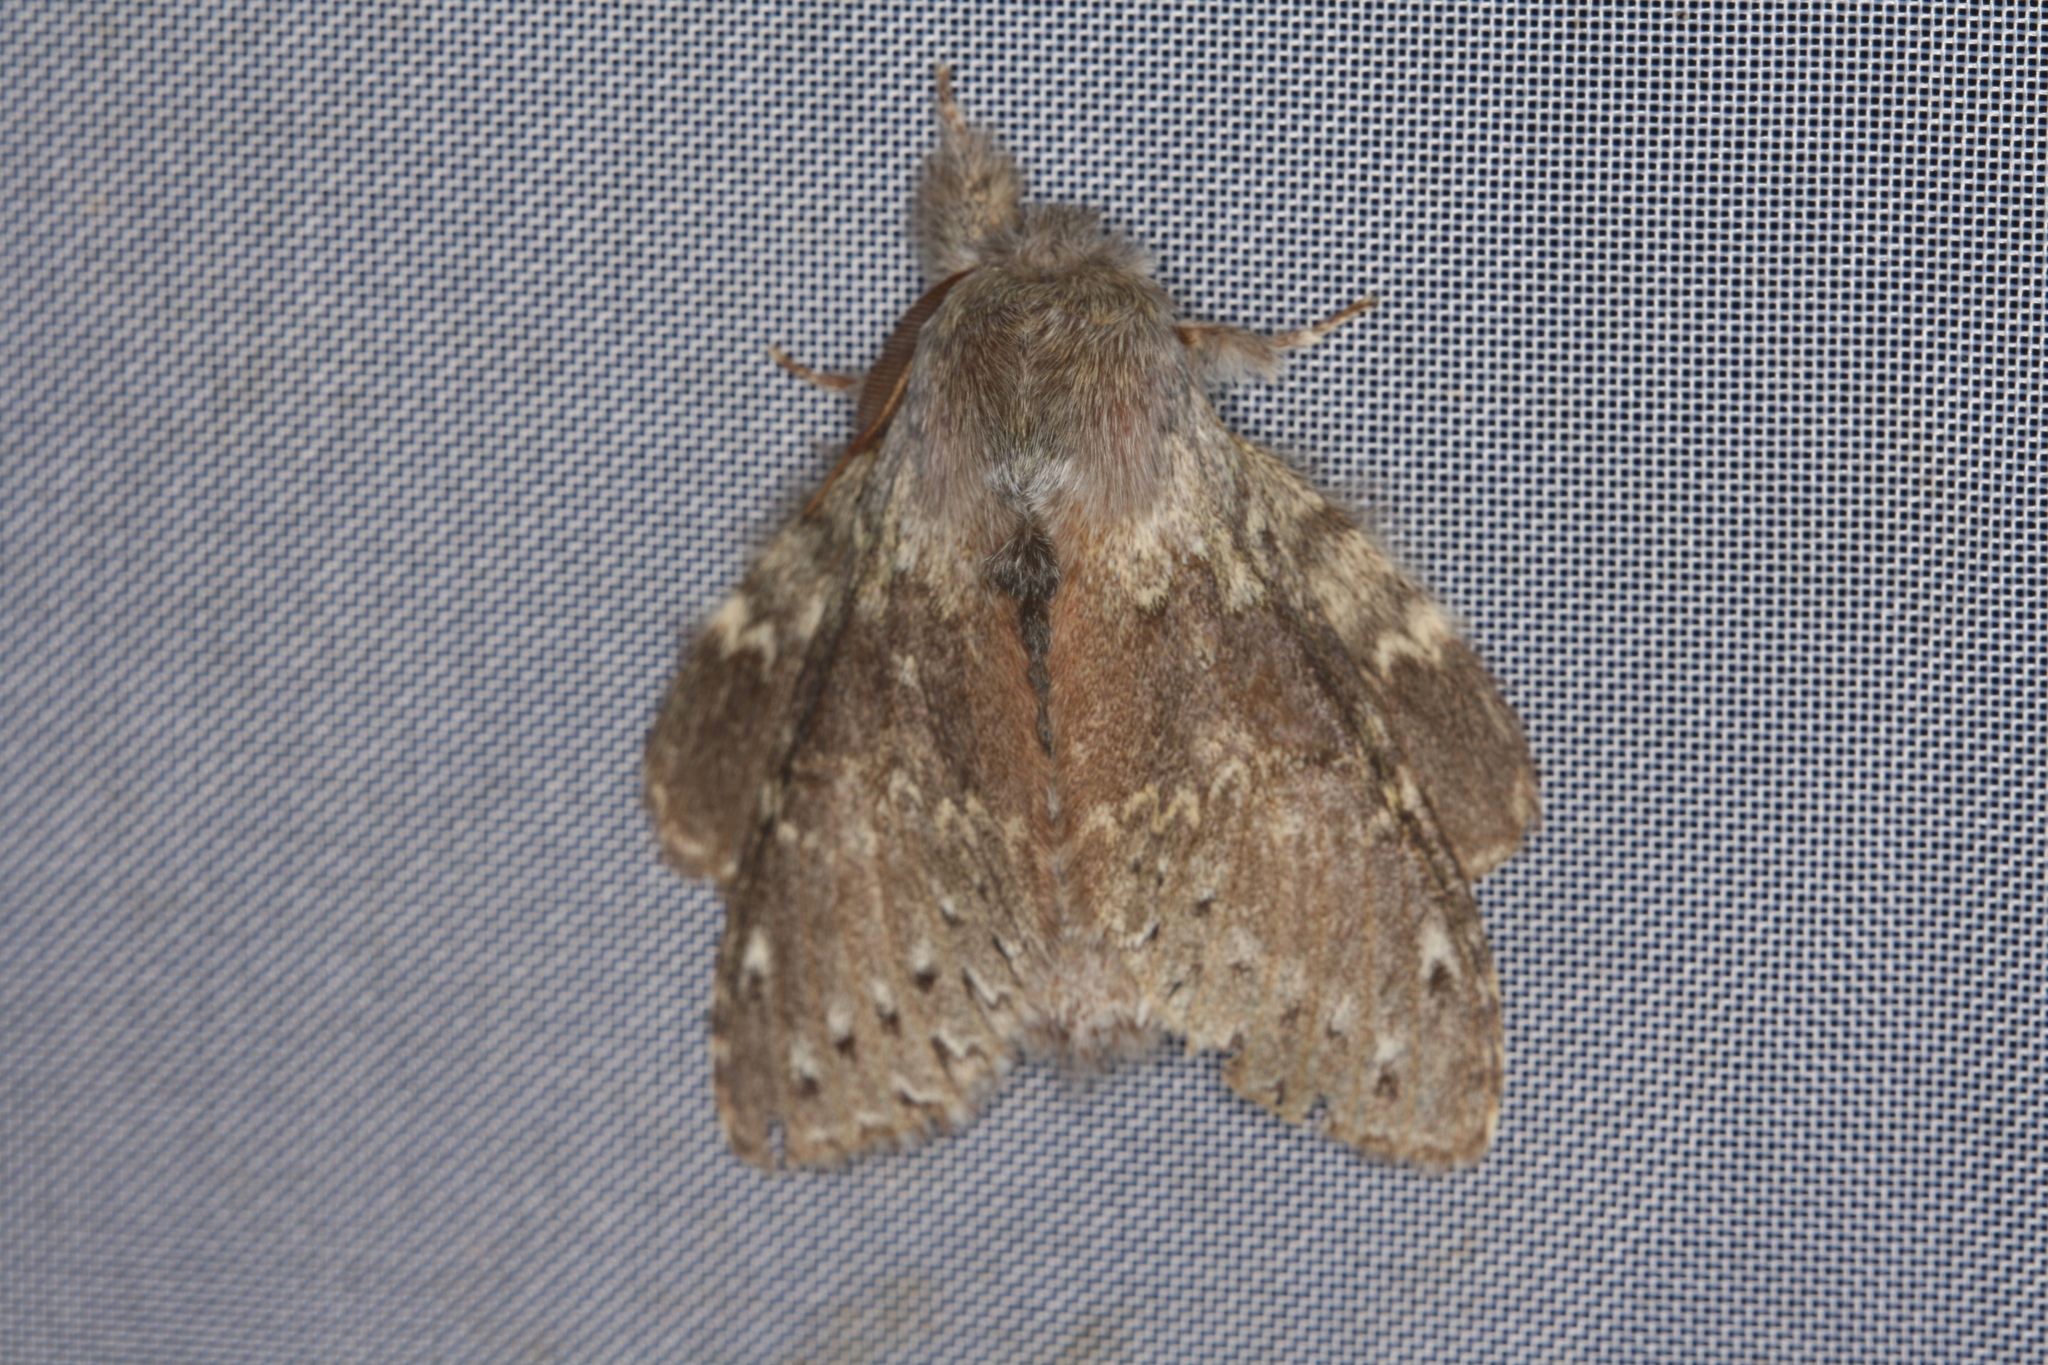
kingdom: Animalia
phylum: Arthropoda
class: Insecta
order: Lepidoptera
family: Notodontidae
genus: Stauropus
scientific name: Stauropus fagi
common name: Lobster moth
